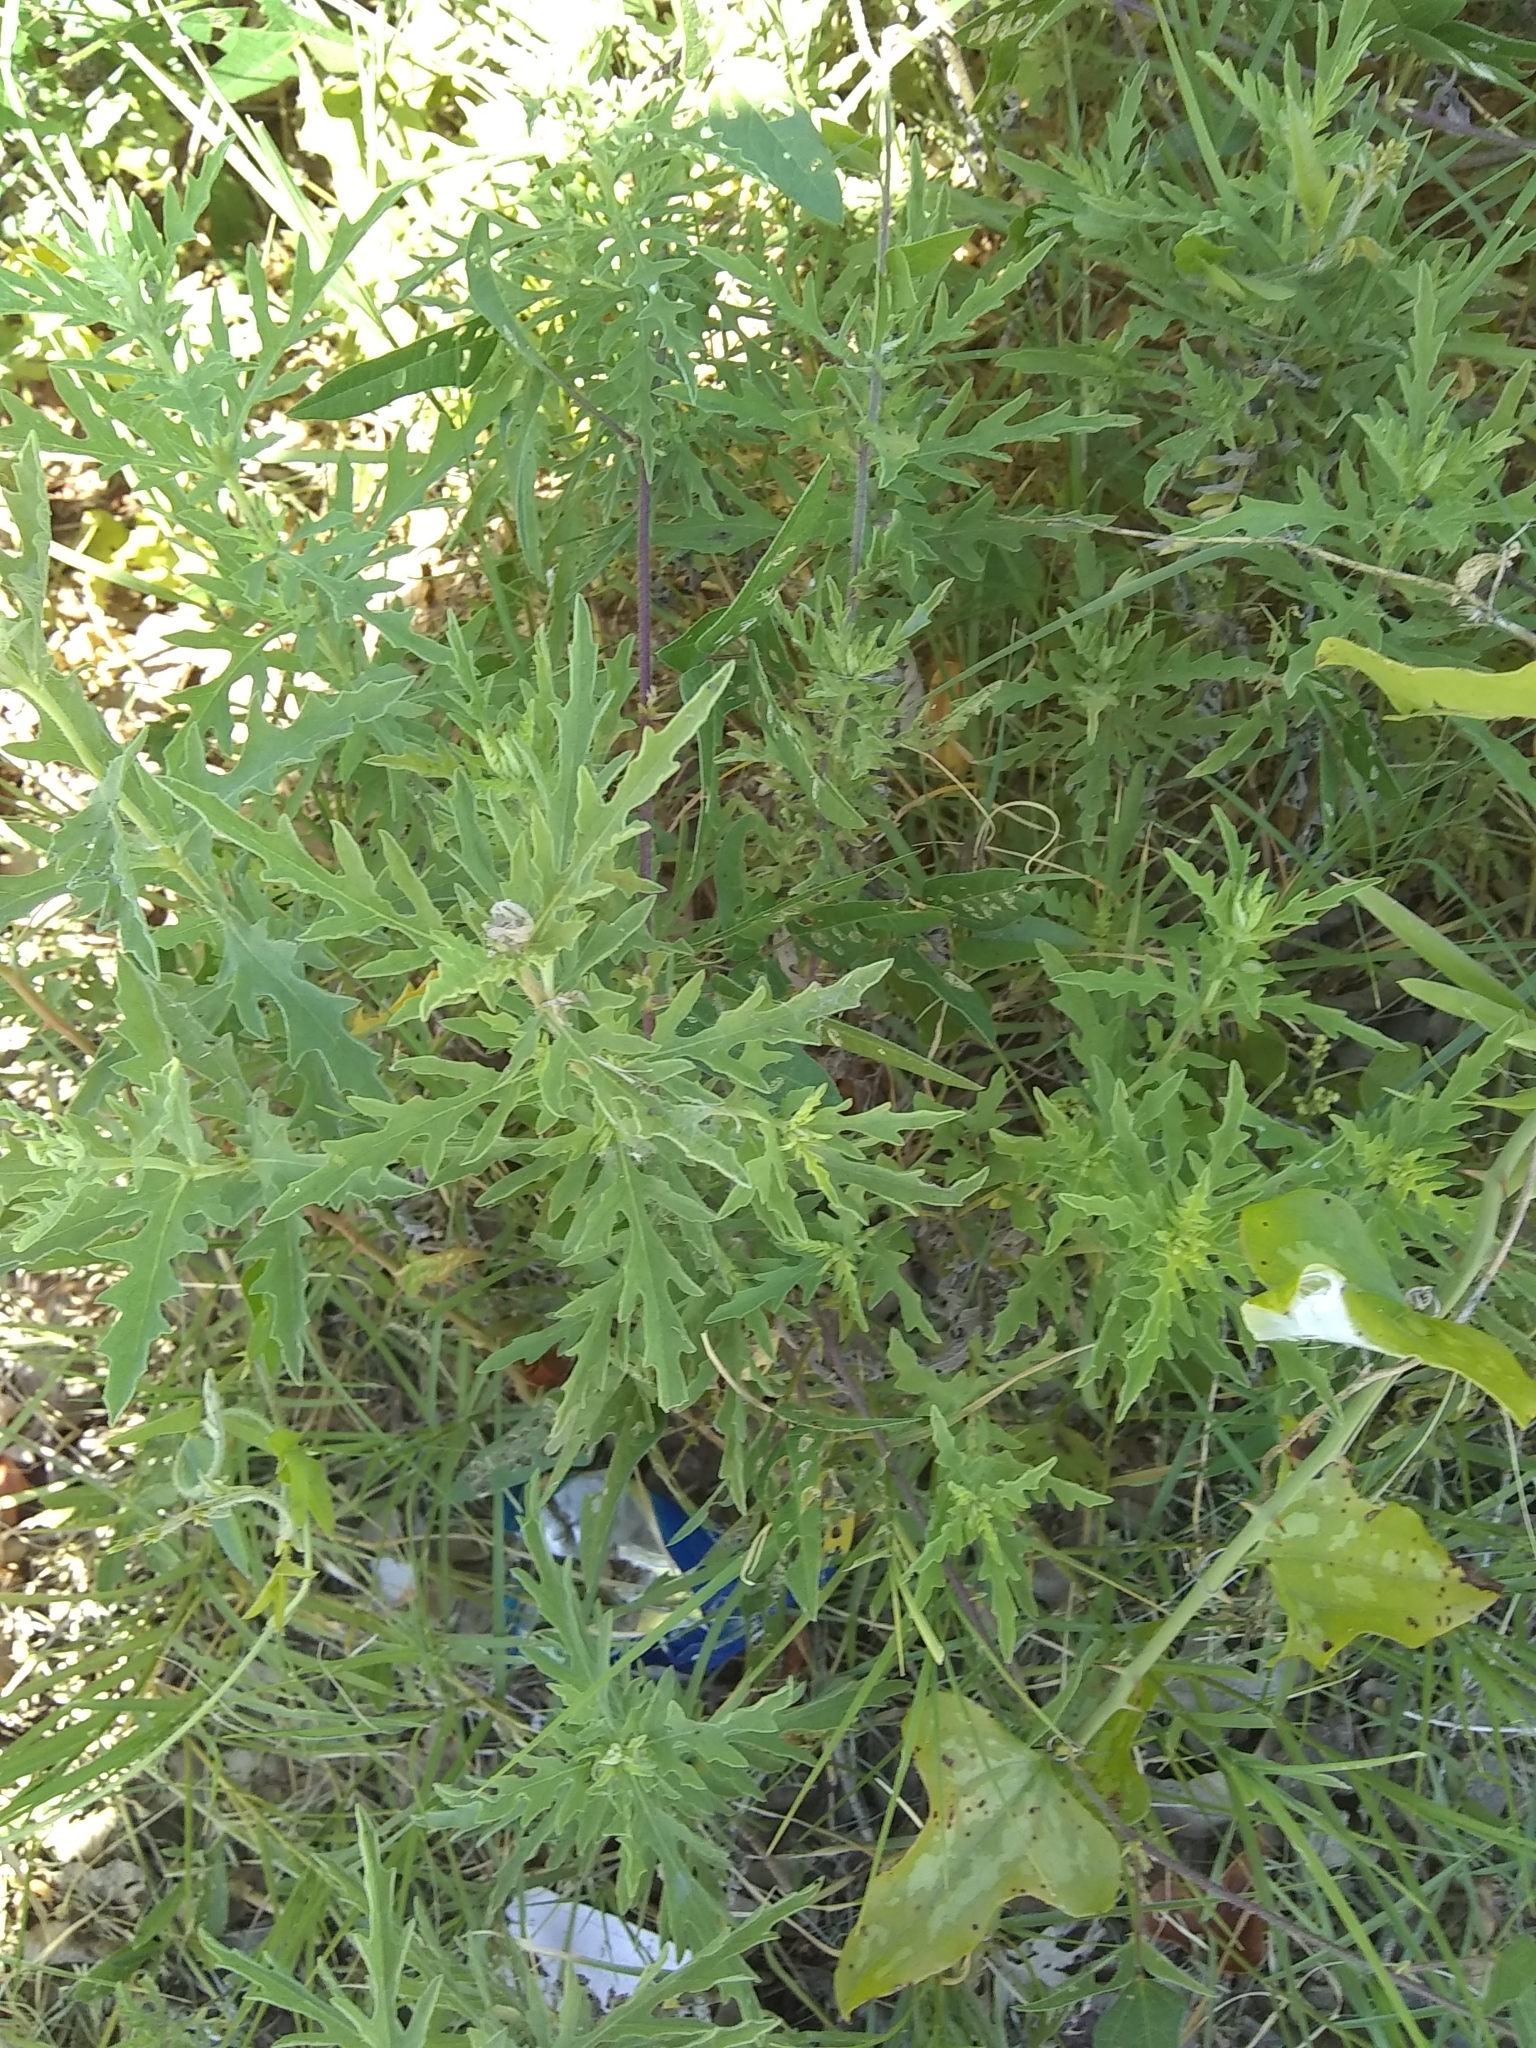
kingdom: Plantae
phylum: Tracheophyta
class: Magnoliopsida
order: Asterales
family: Asteraceae
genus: Ambrosia
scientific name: Ambrosia psilostachya
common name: Perennial ragweed
